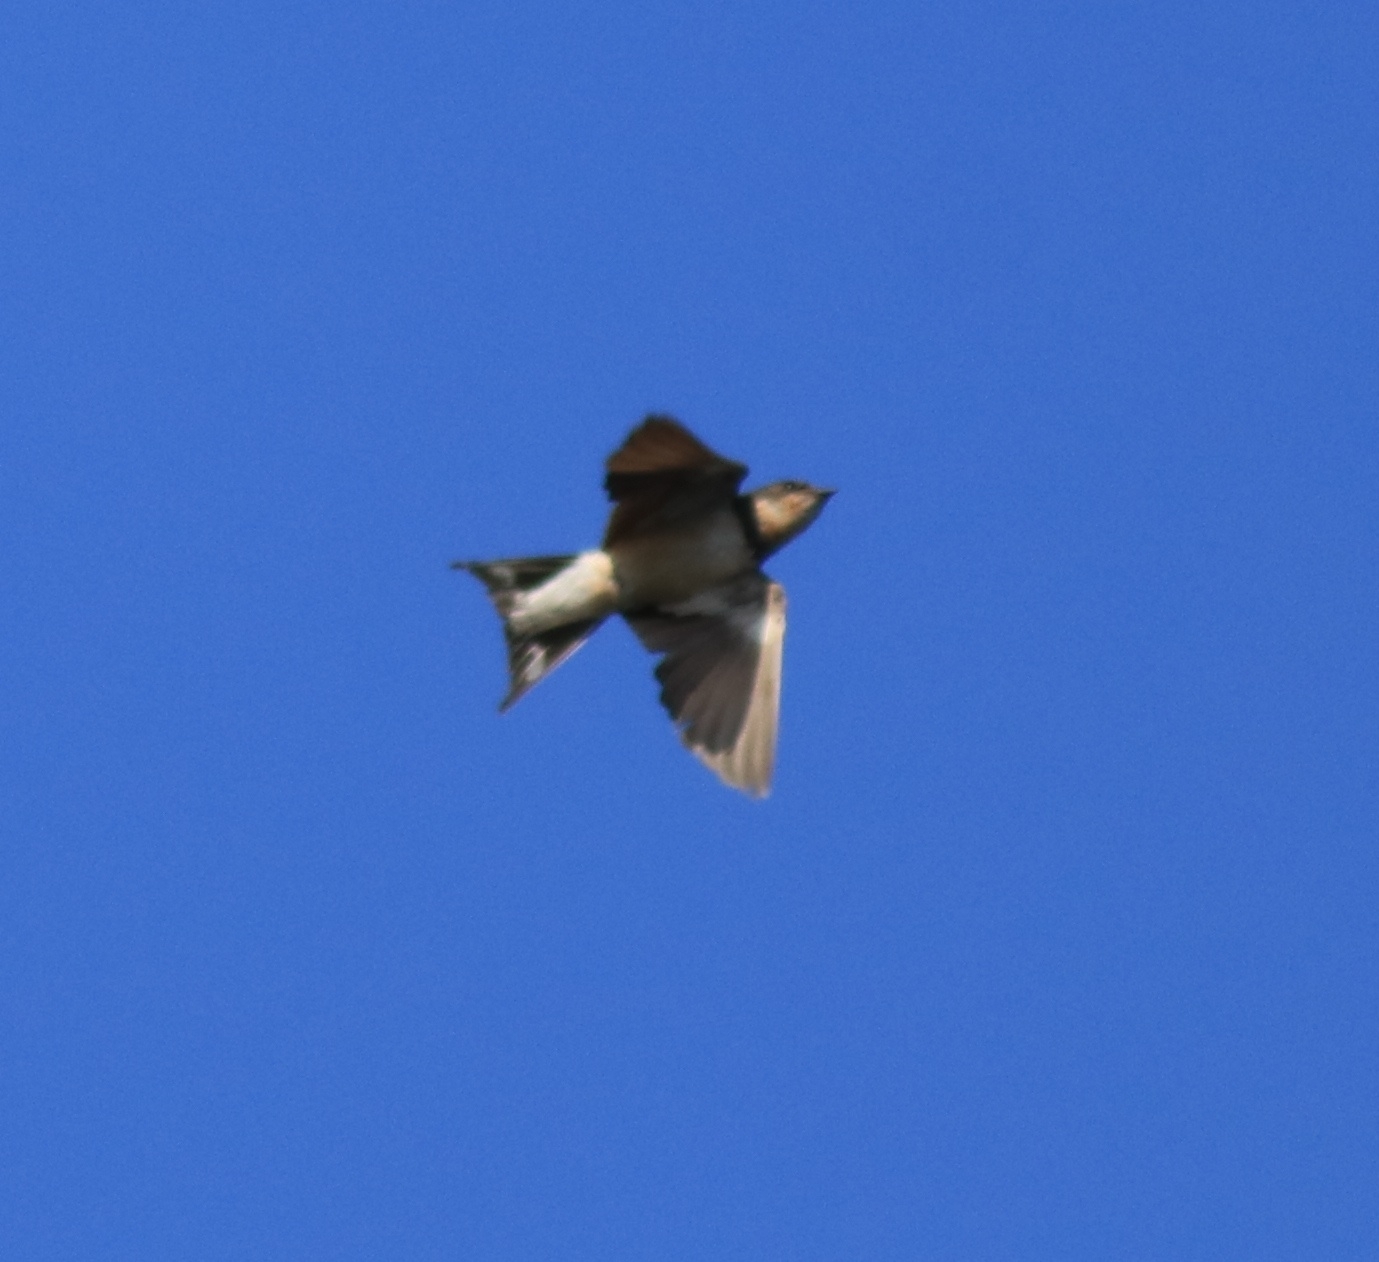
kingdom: Animalia
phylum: Chordata
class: Aves
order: Passeriformes
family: Hirundinidae
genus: Hirundo
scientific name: Hirundo rustica
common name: Barn swallow
